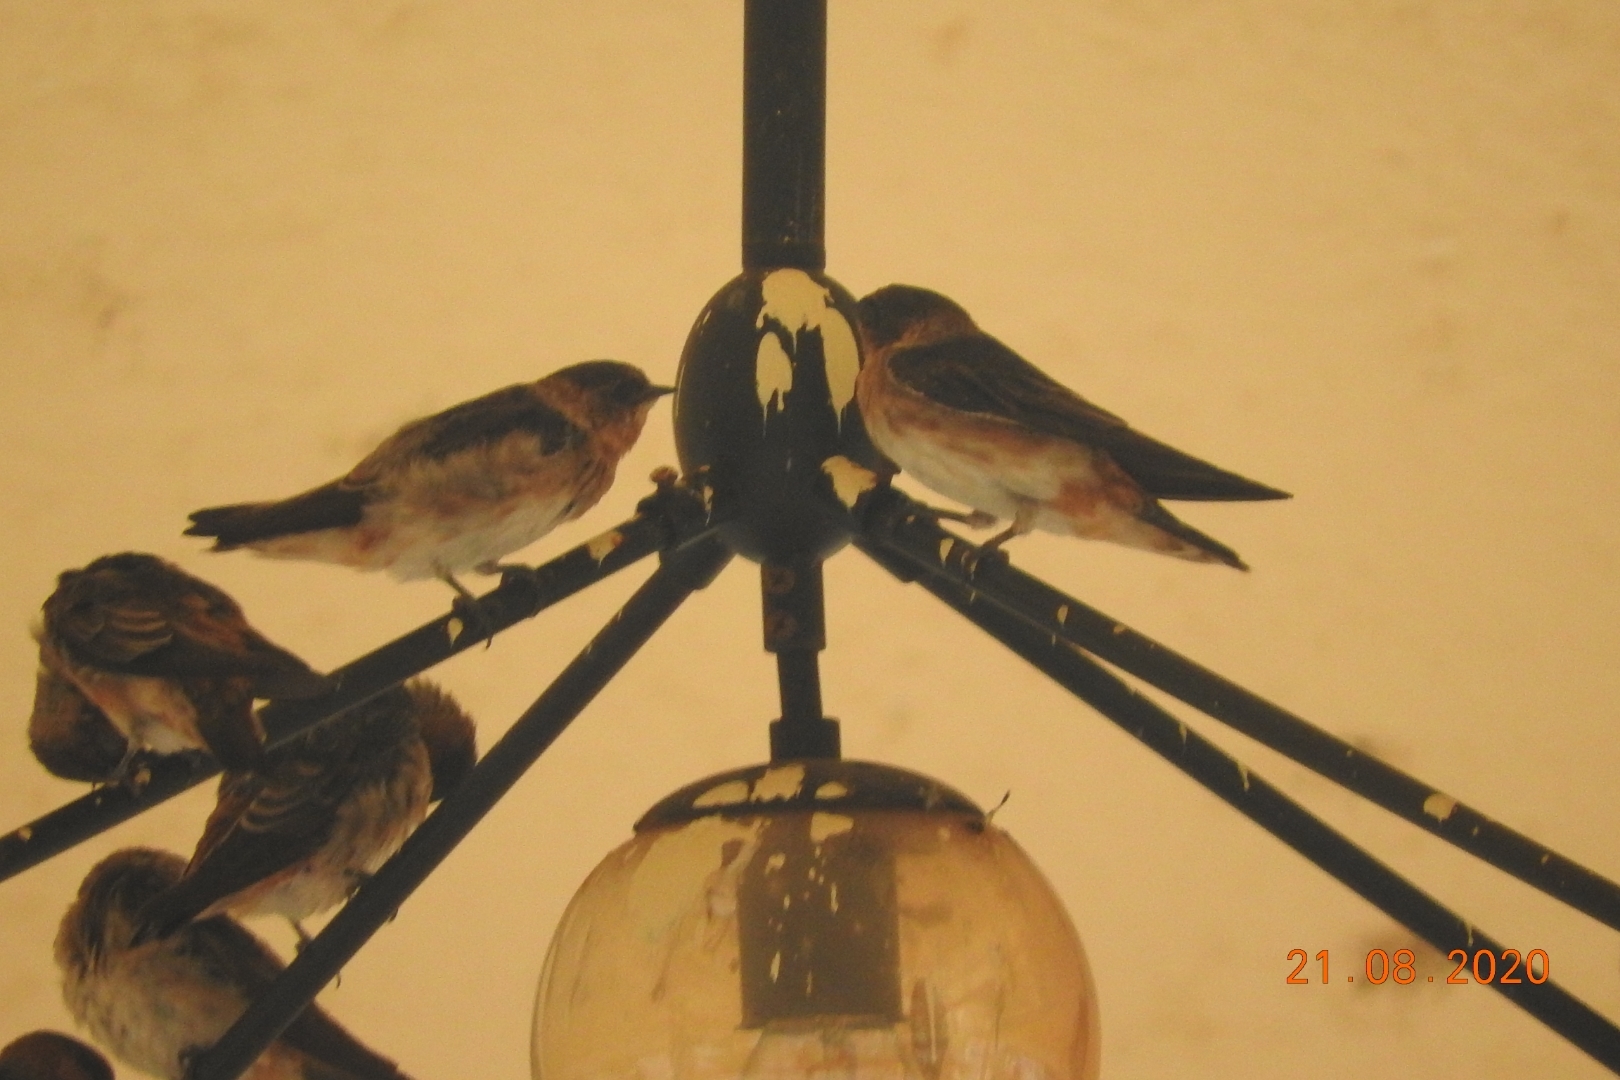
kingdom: Animalia
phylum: Chordata
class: Aves
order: Passeriformes
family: Hirundinidae
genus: Petrochelidon
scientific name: Petrochelidon fulva
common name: Cave swallow
